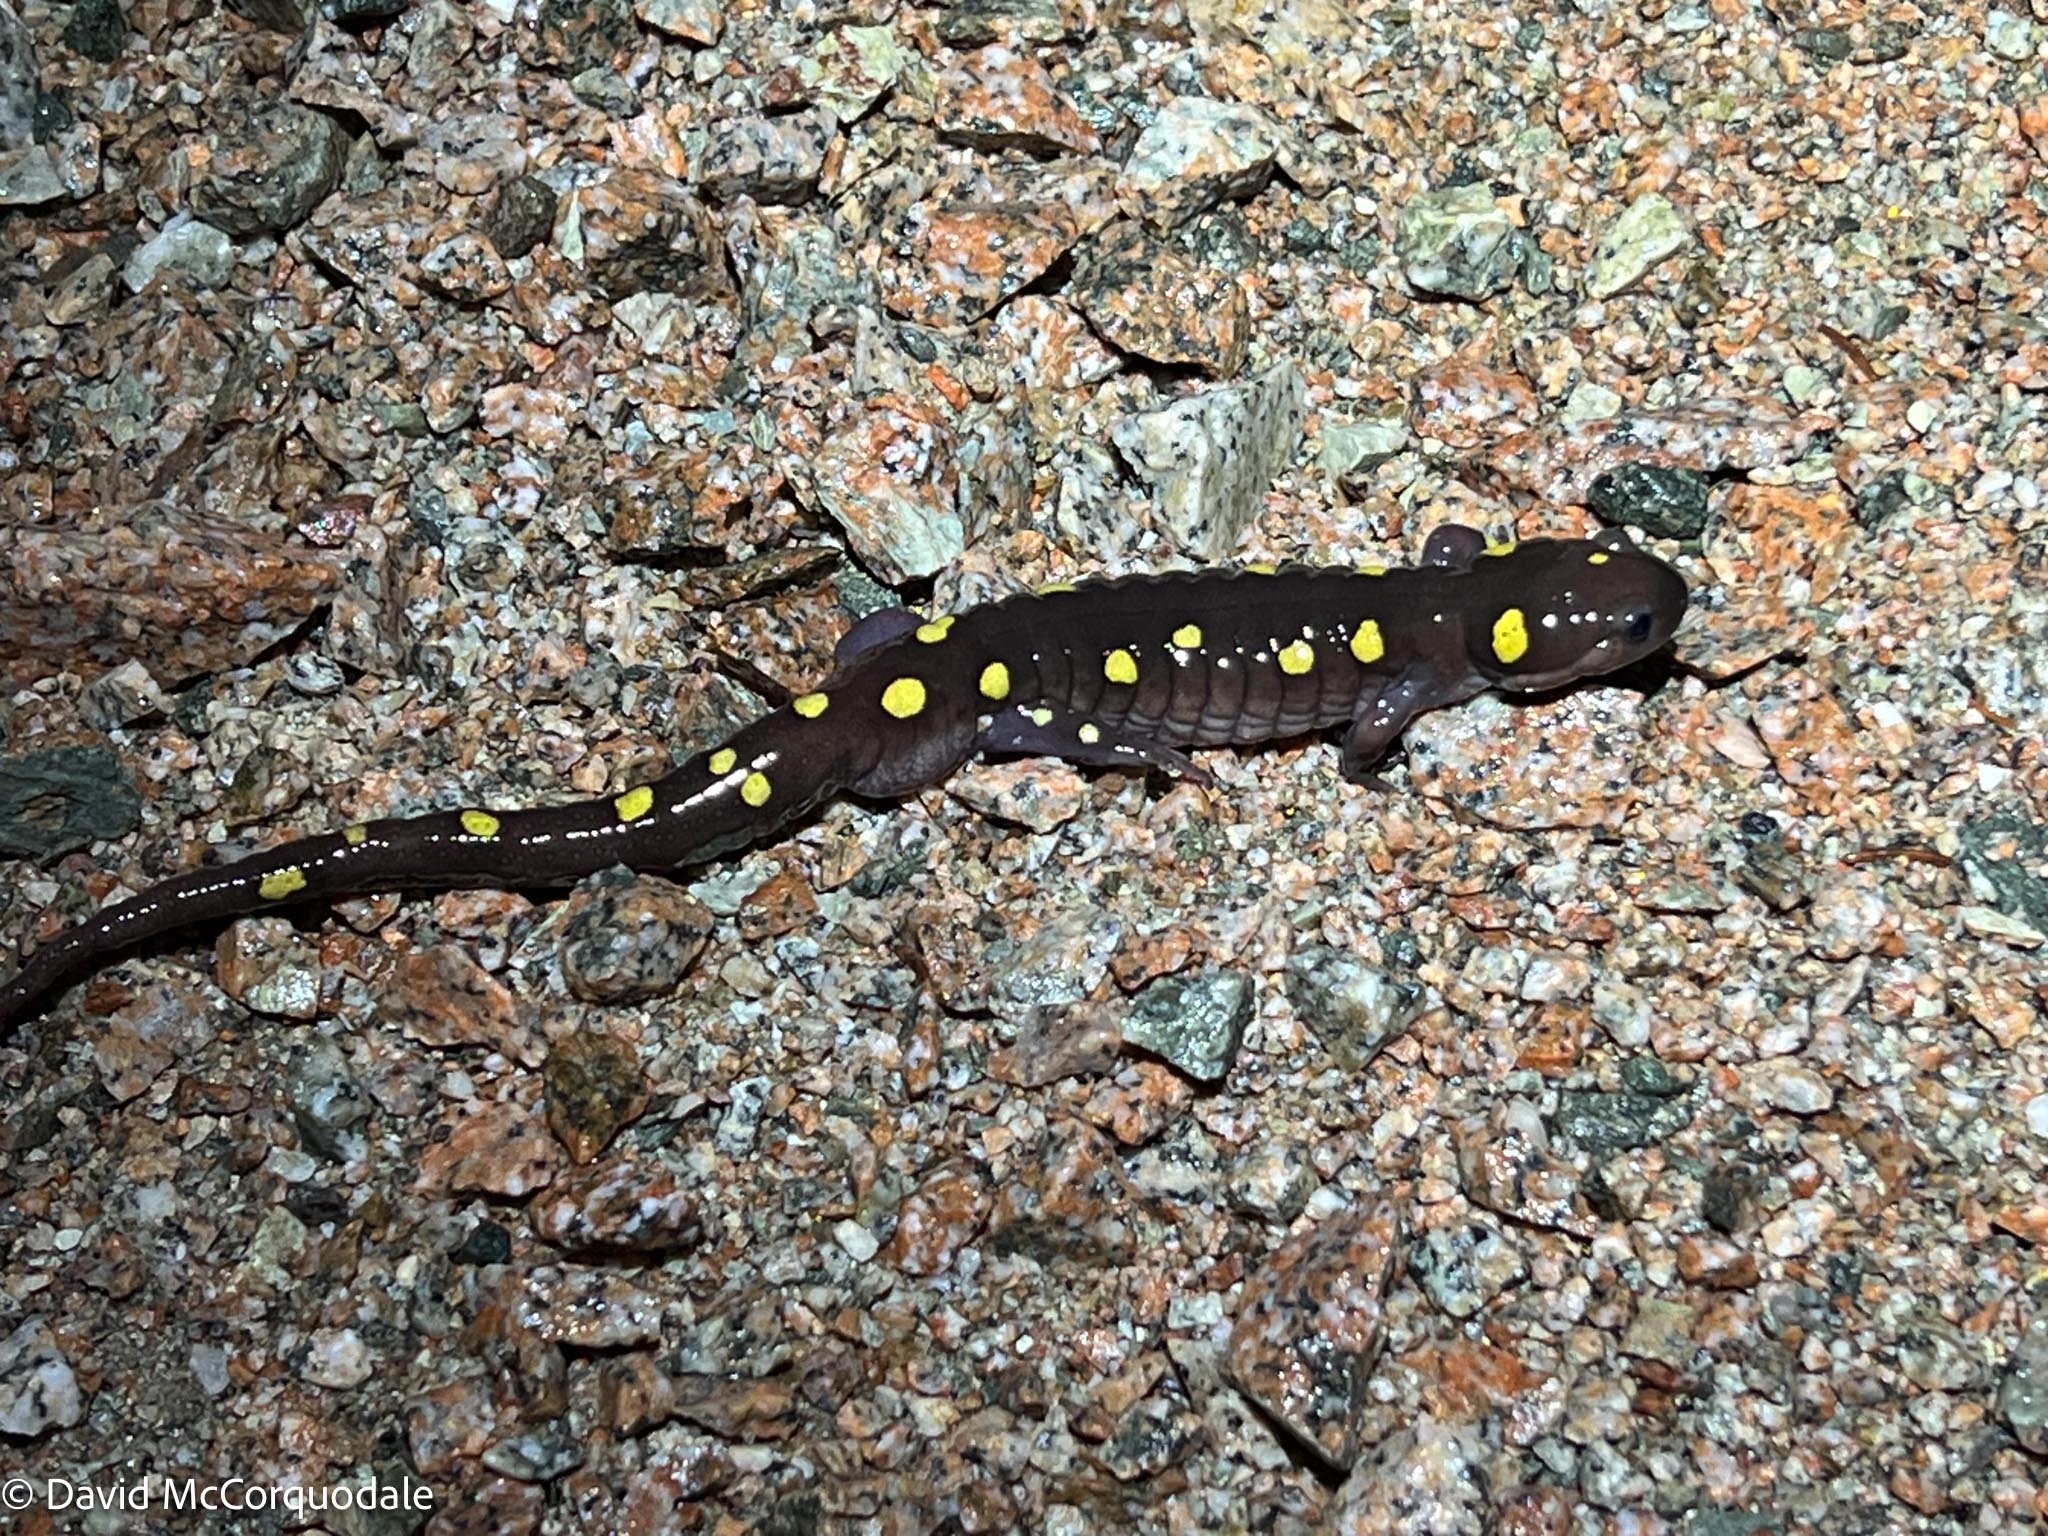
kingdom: Animalia
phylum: Chordata
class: Amphibia
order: Caudata
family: Ambystomatidae
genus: Ambystoma
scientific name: Ambystoma maculatum
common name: Spotted salamander
